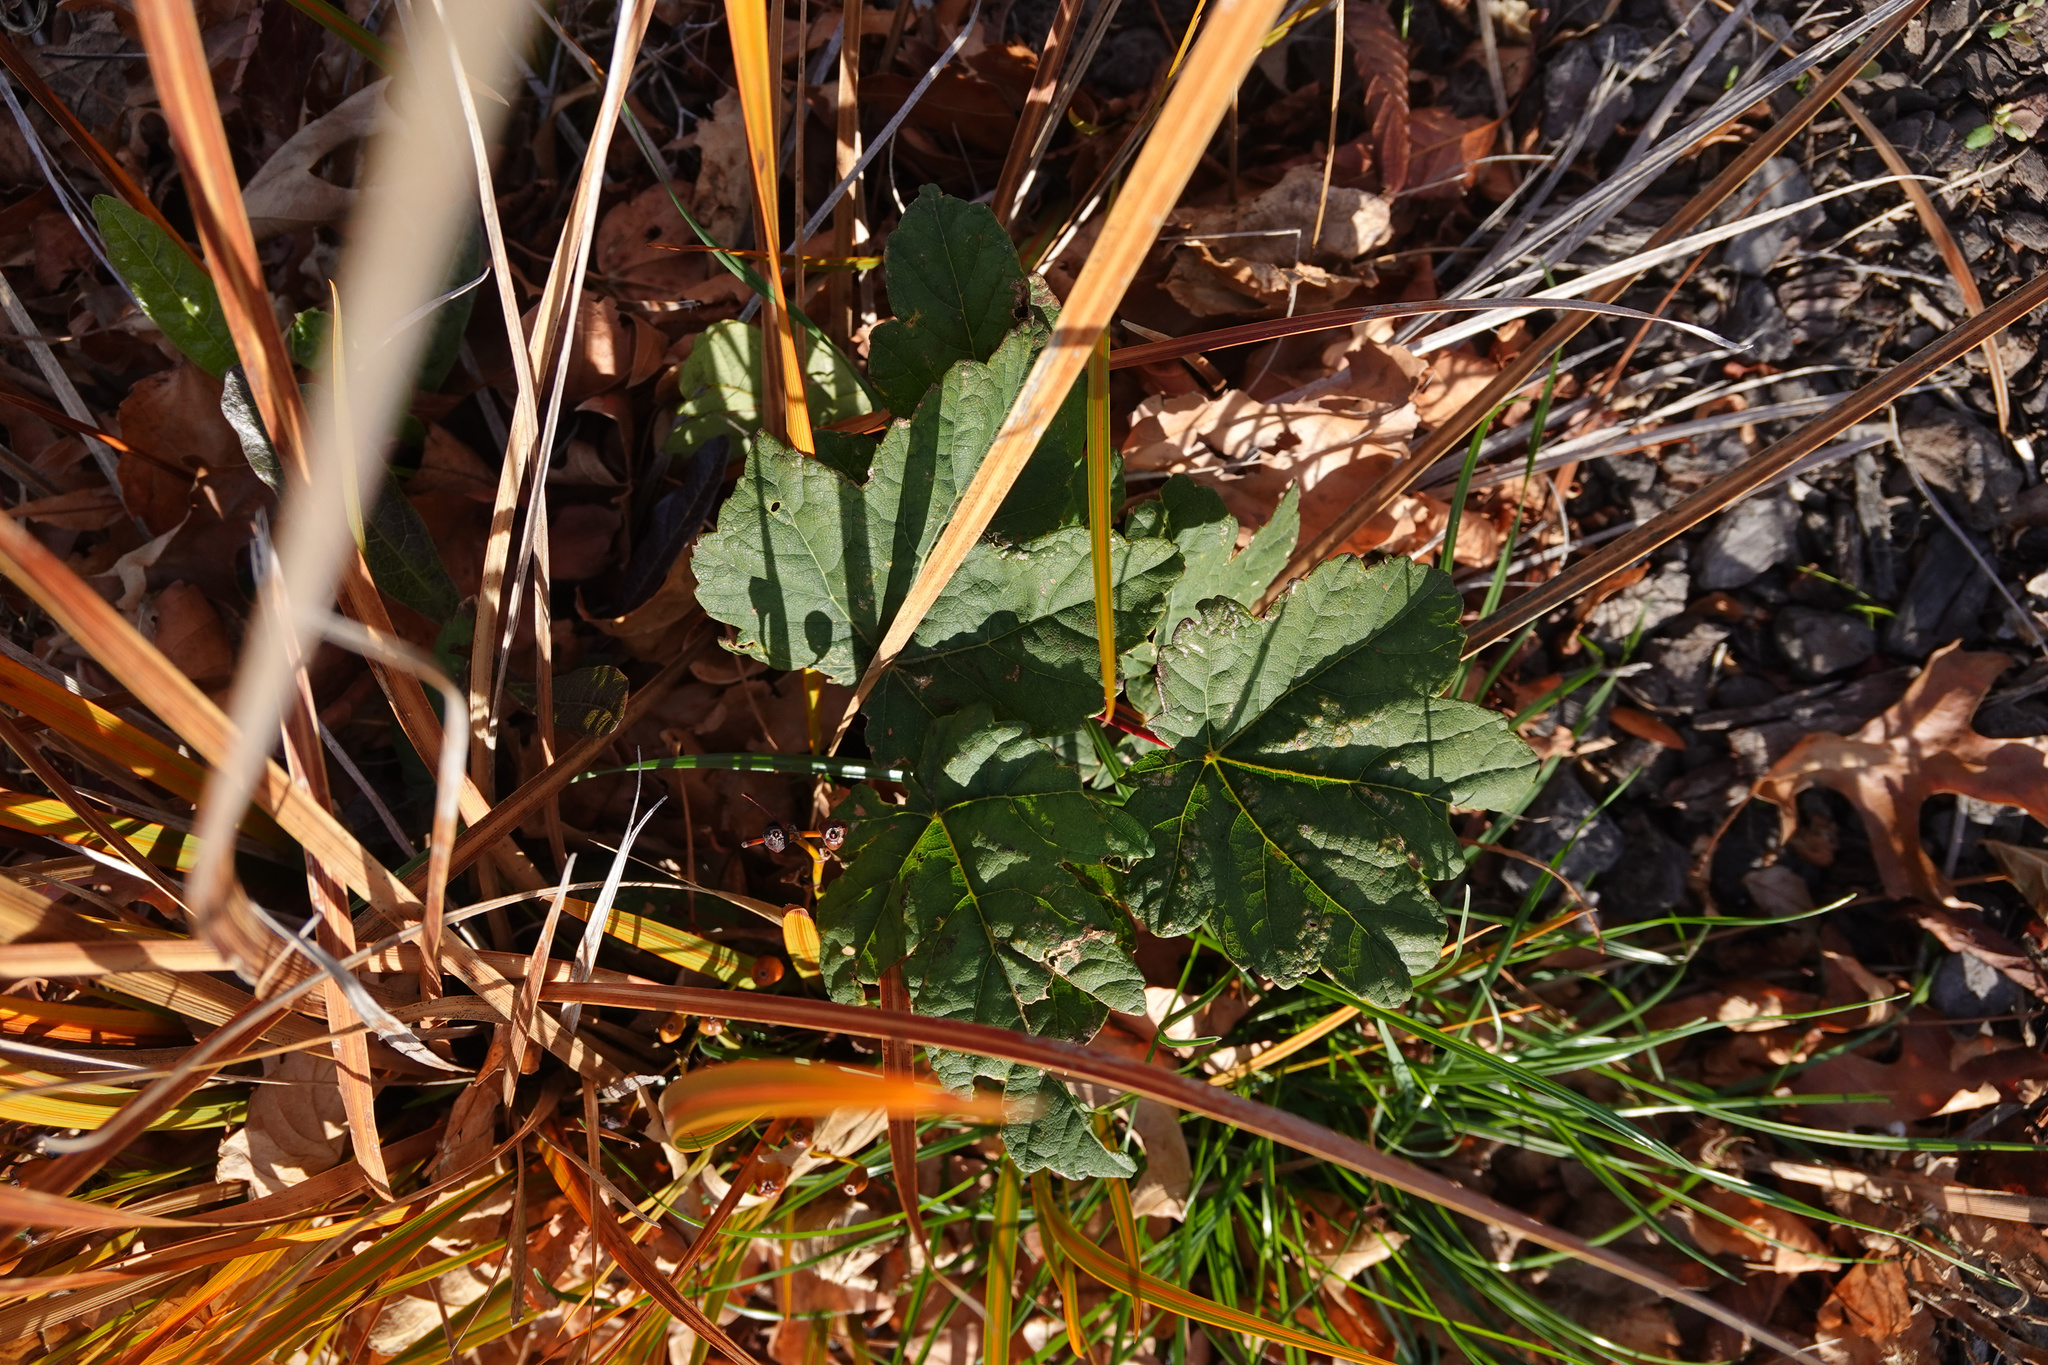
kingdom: Plantae
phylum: Tracheophyta
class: Magnoliopsida
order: Sapindales
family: Sapindaceae
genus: Acer
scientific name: Acer pseudoplatanus
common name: Sycamore
